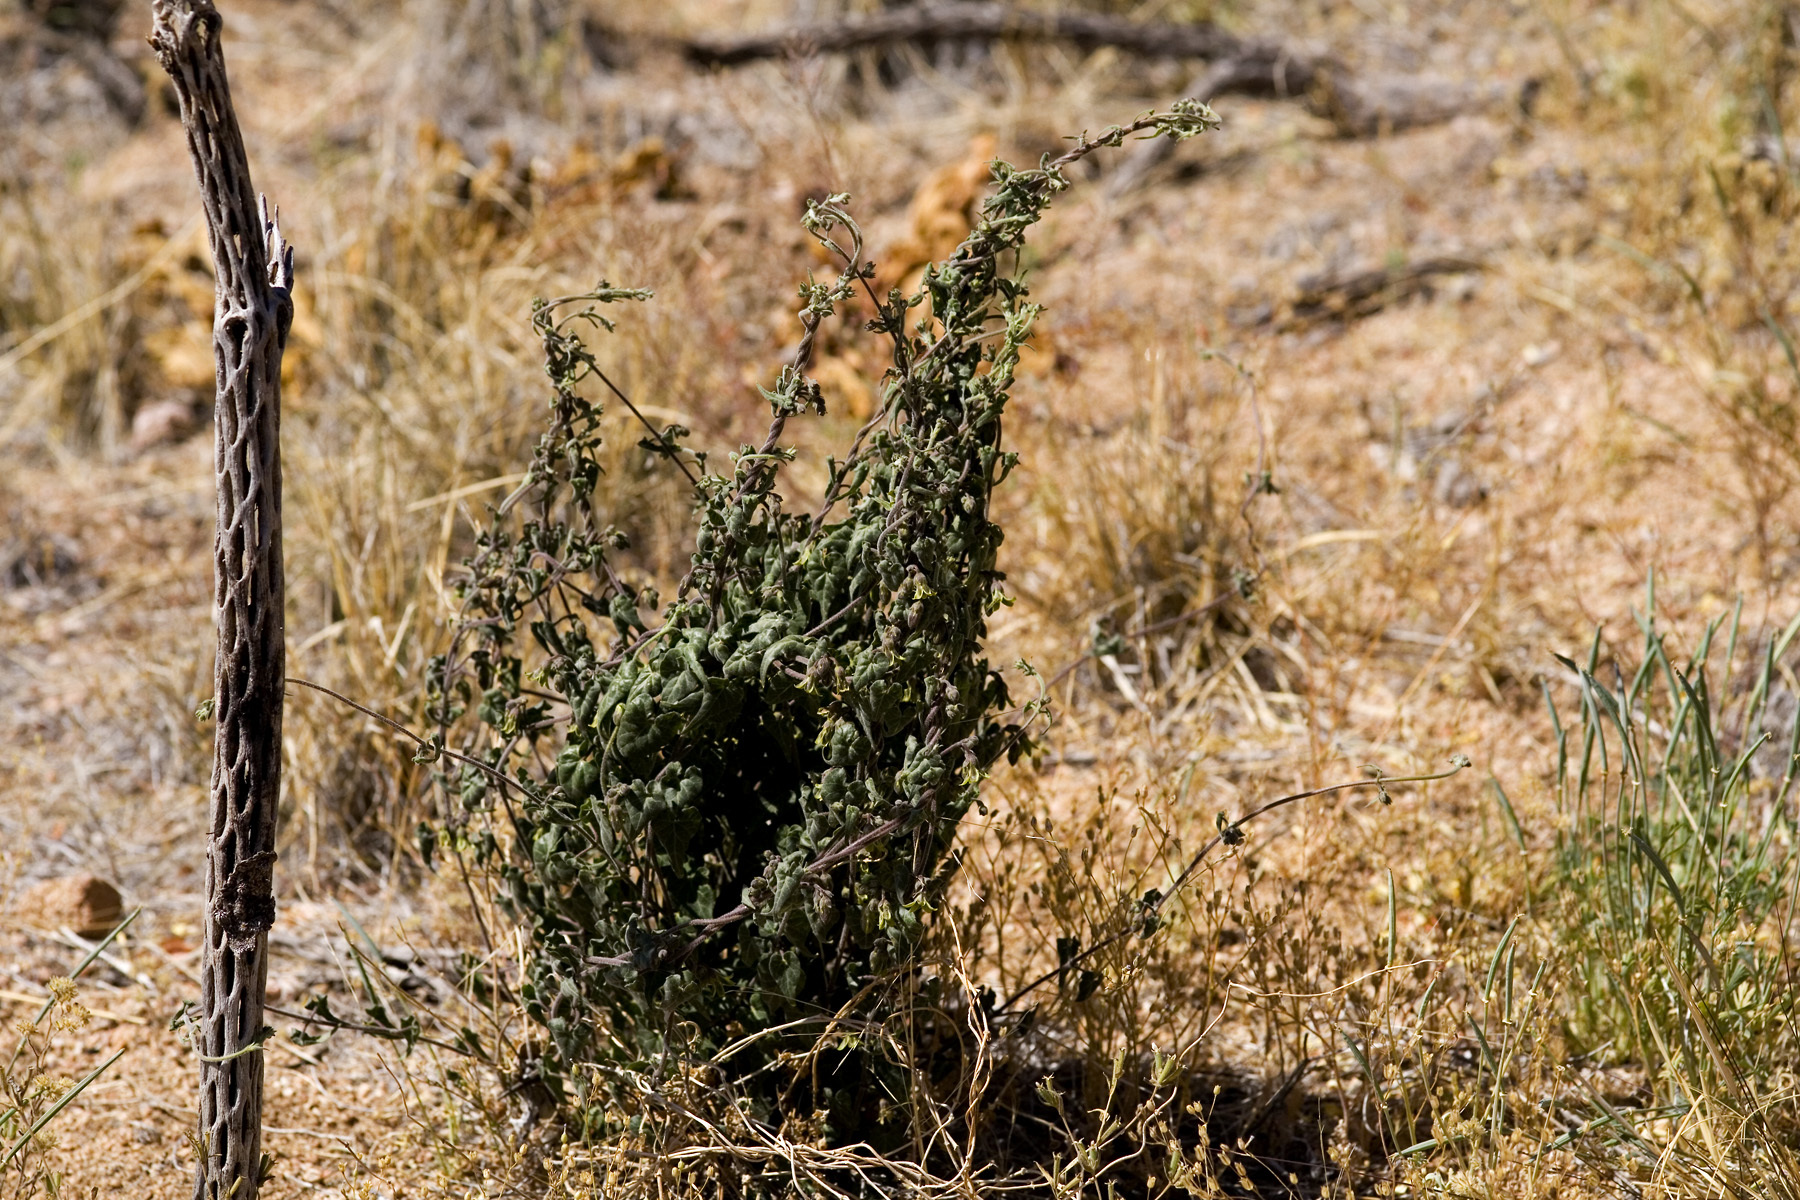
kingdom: Plantae
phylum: Tracheophyta
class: Magnoliopsida
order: Gentianales
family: Apocynaceae
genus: Chthamalia
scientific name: Chthamalia producta
